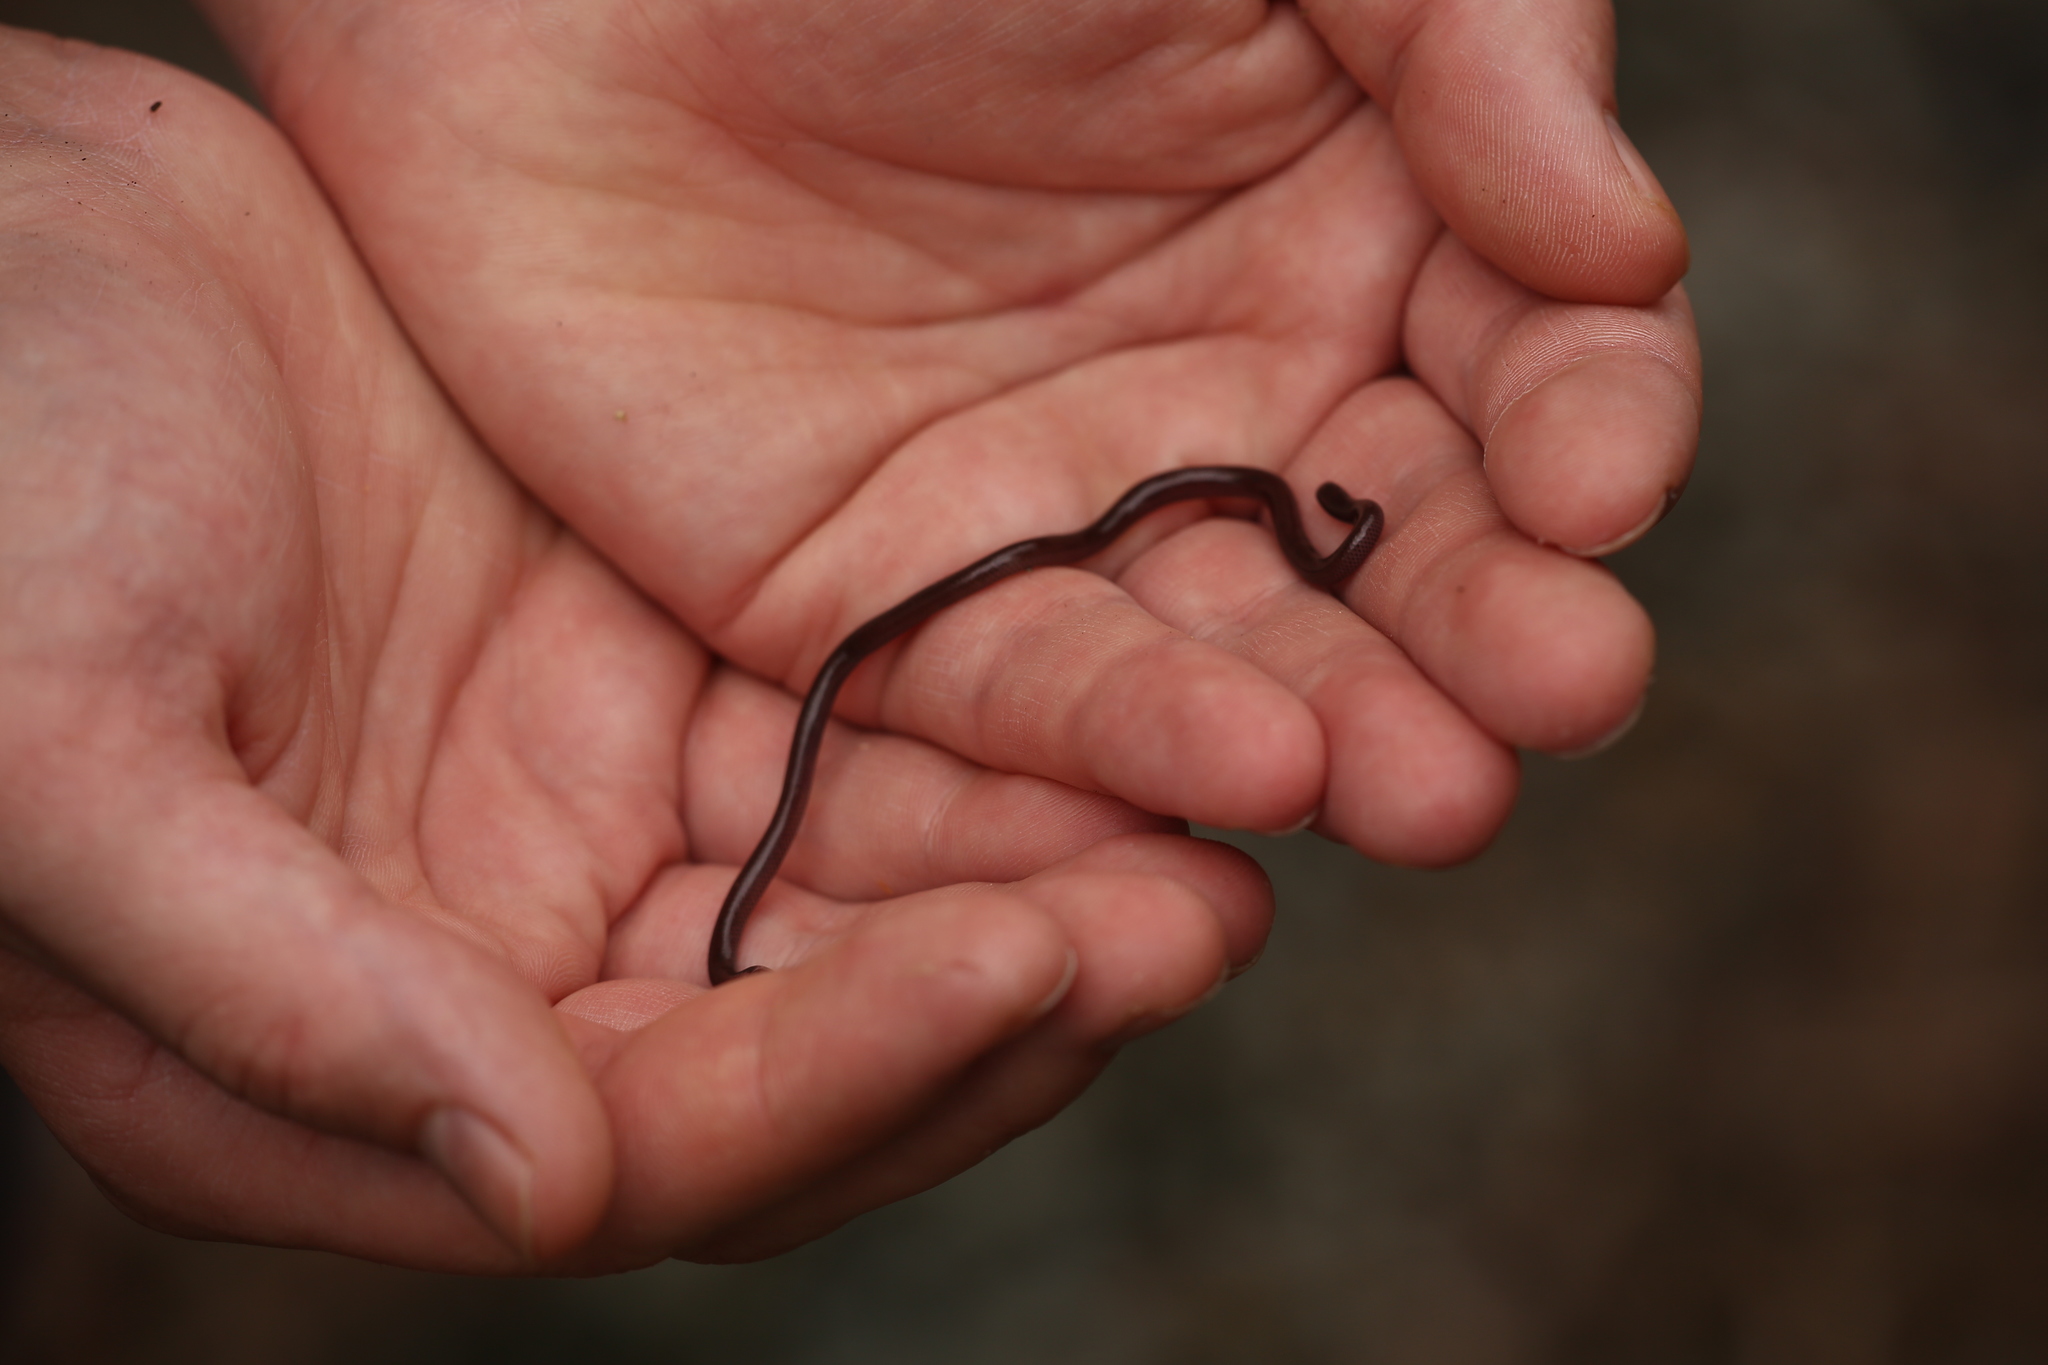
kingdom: Animalia
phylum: Chordata
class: Squamata
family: Typhlopidae
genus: Indotyphlops
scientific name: Indotyphlops braminus
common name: Brahminy blindsnake
